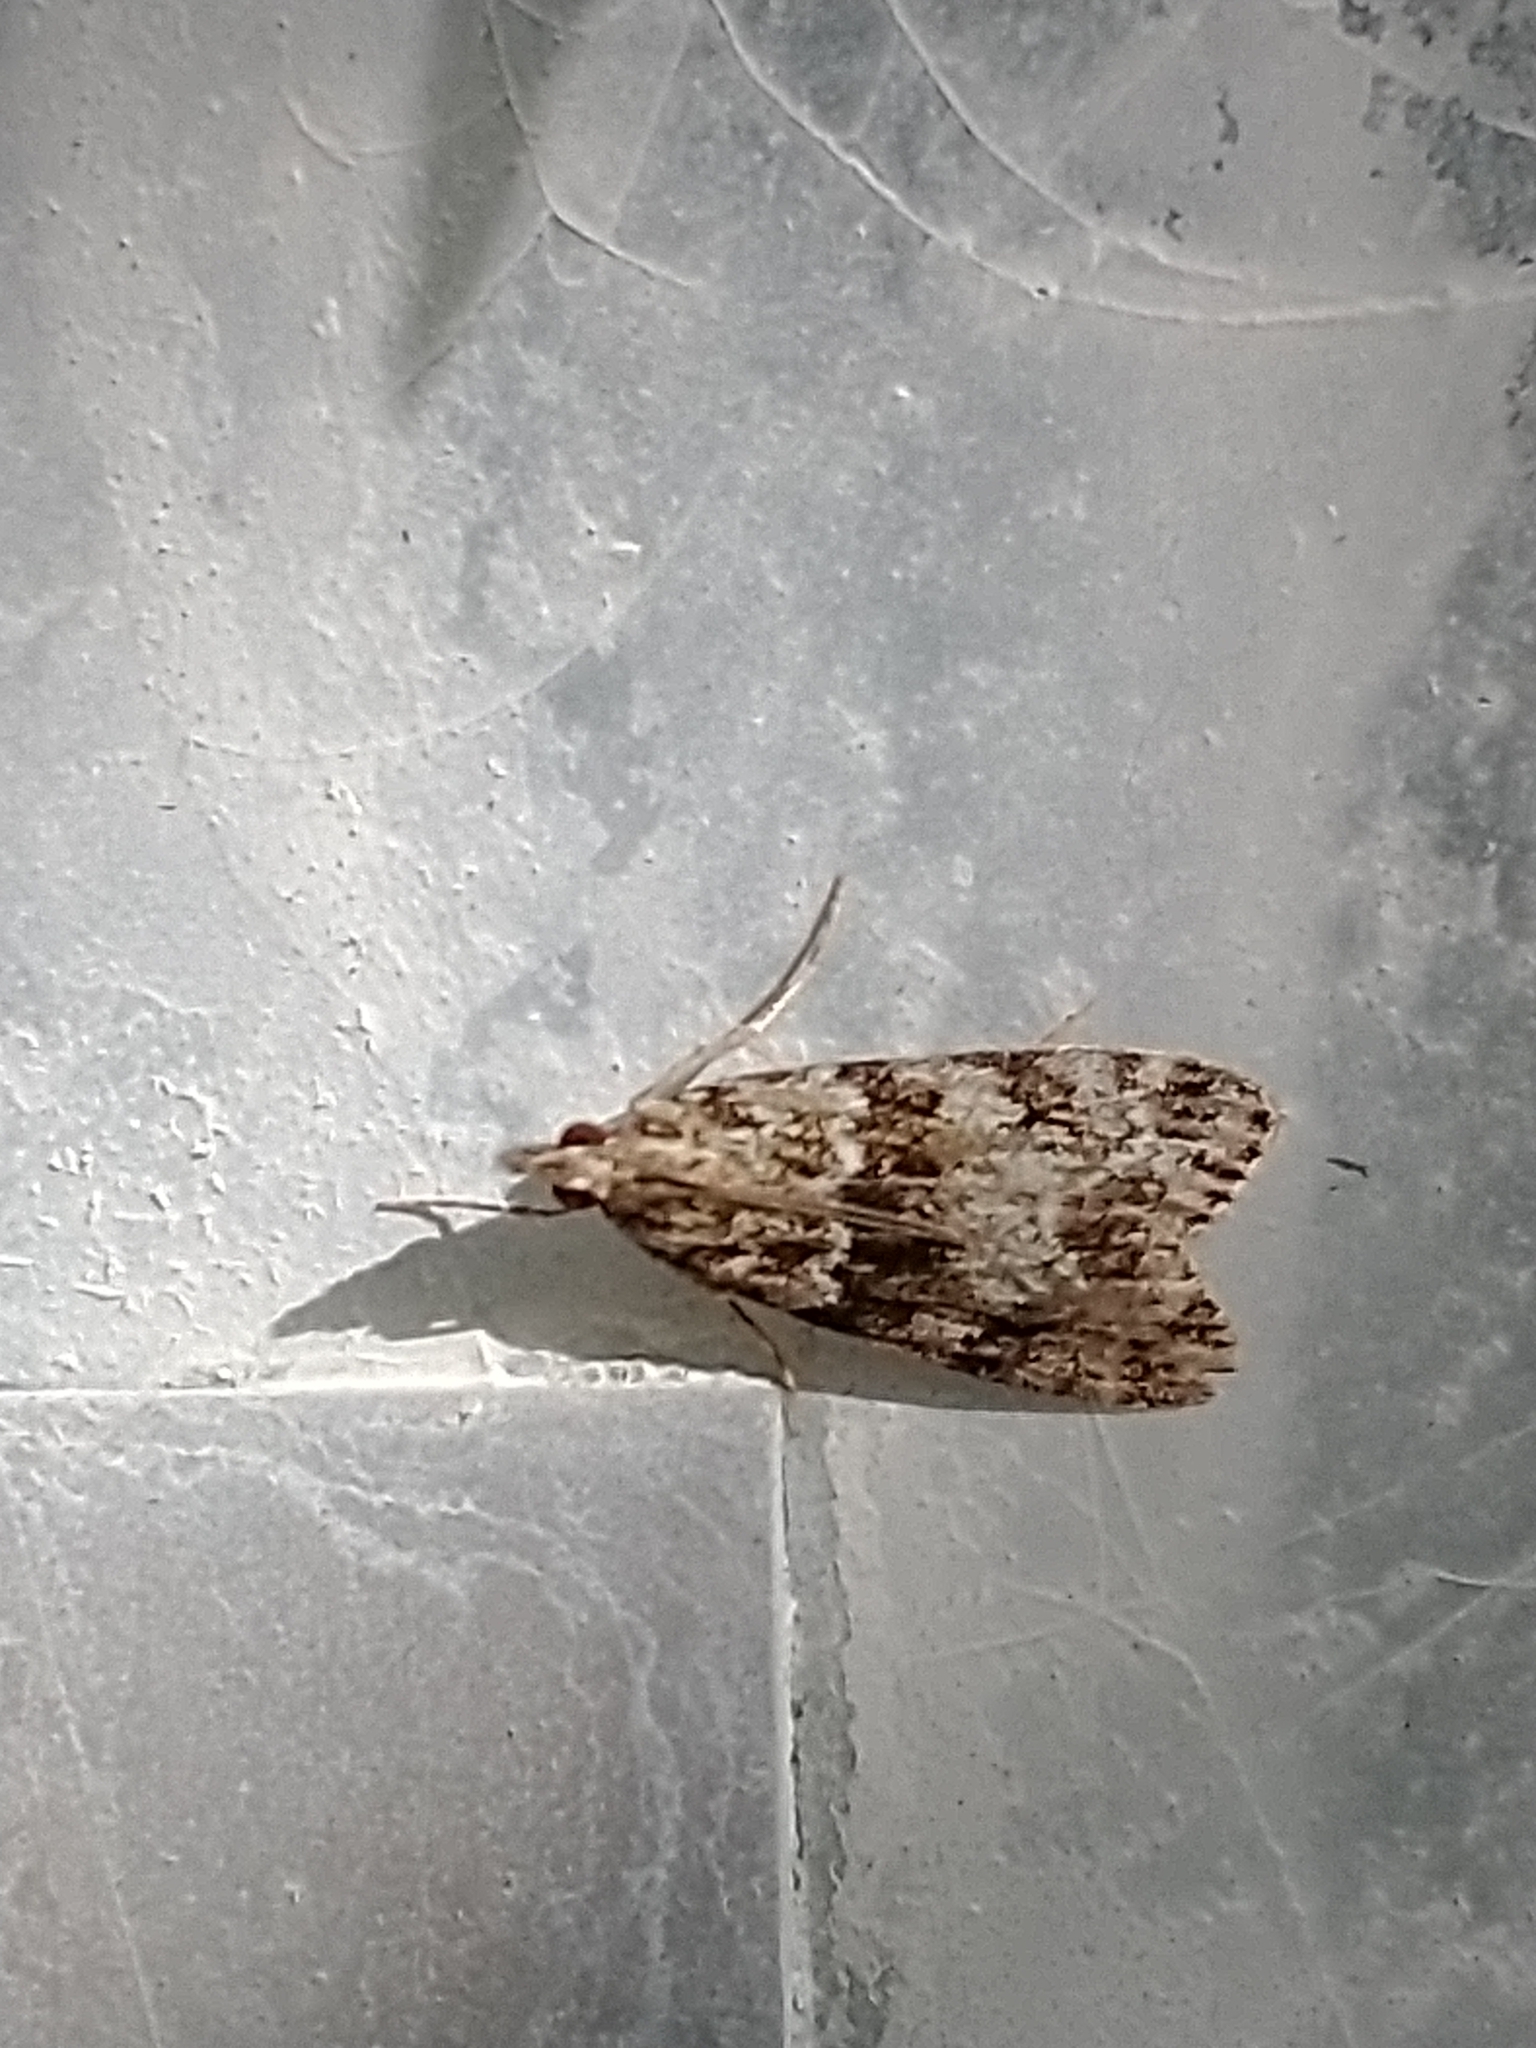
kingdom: Animalia
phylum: Arthropoda
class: Insecta
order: Lepidoptera
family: Crambidae
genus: Eudonia
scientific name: Eudonia mercurella
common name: Small grey
